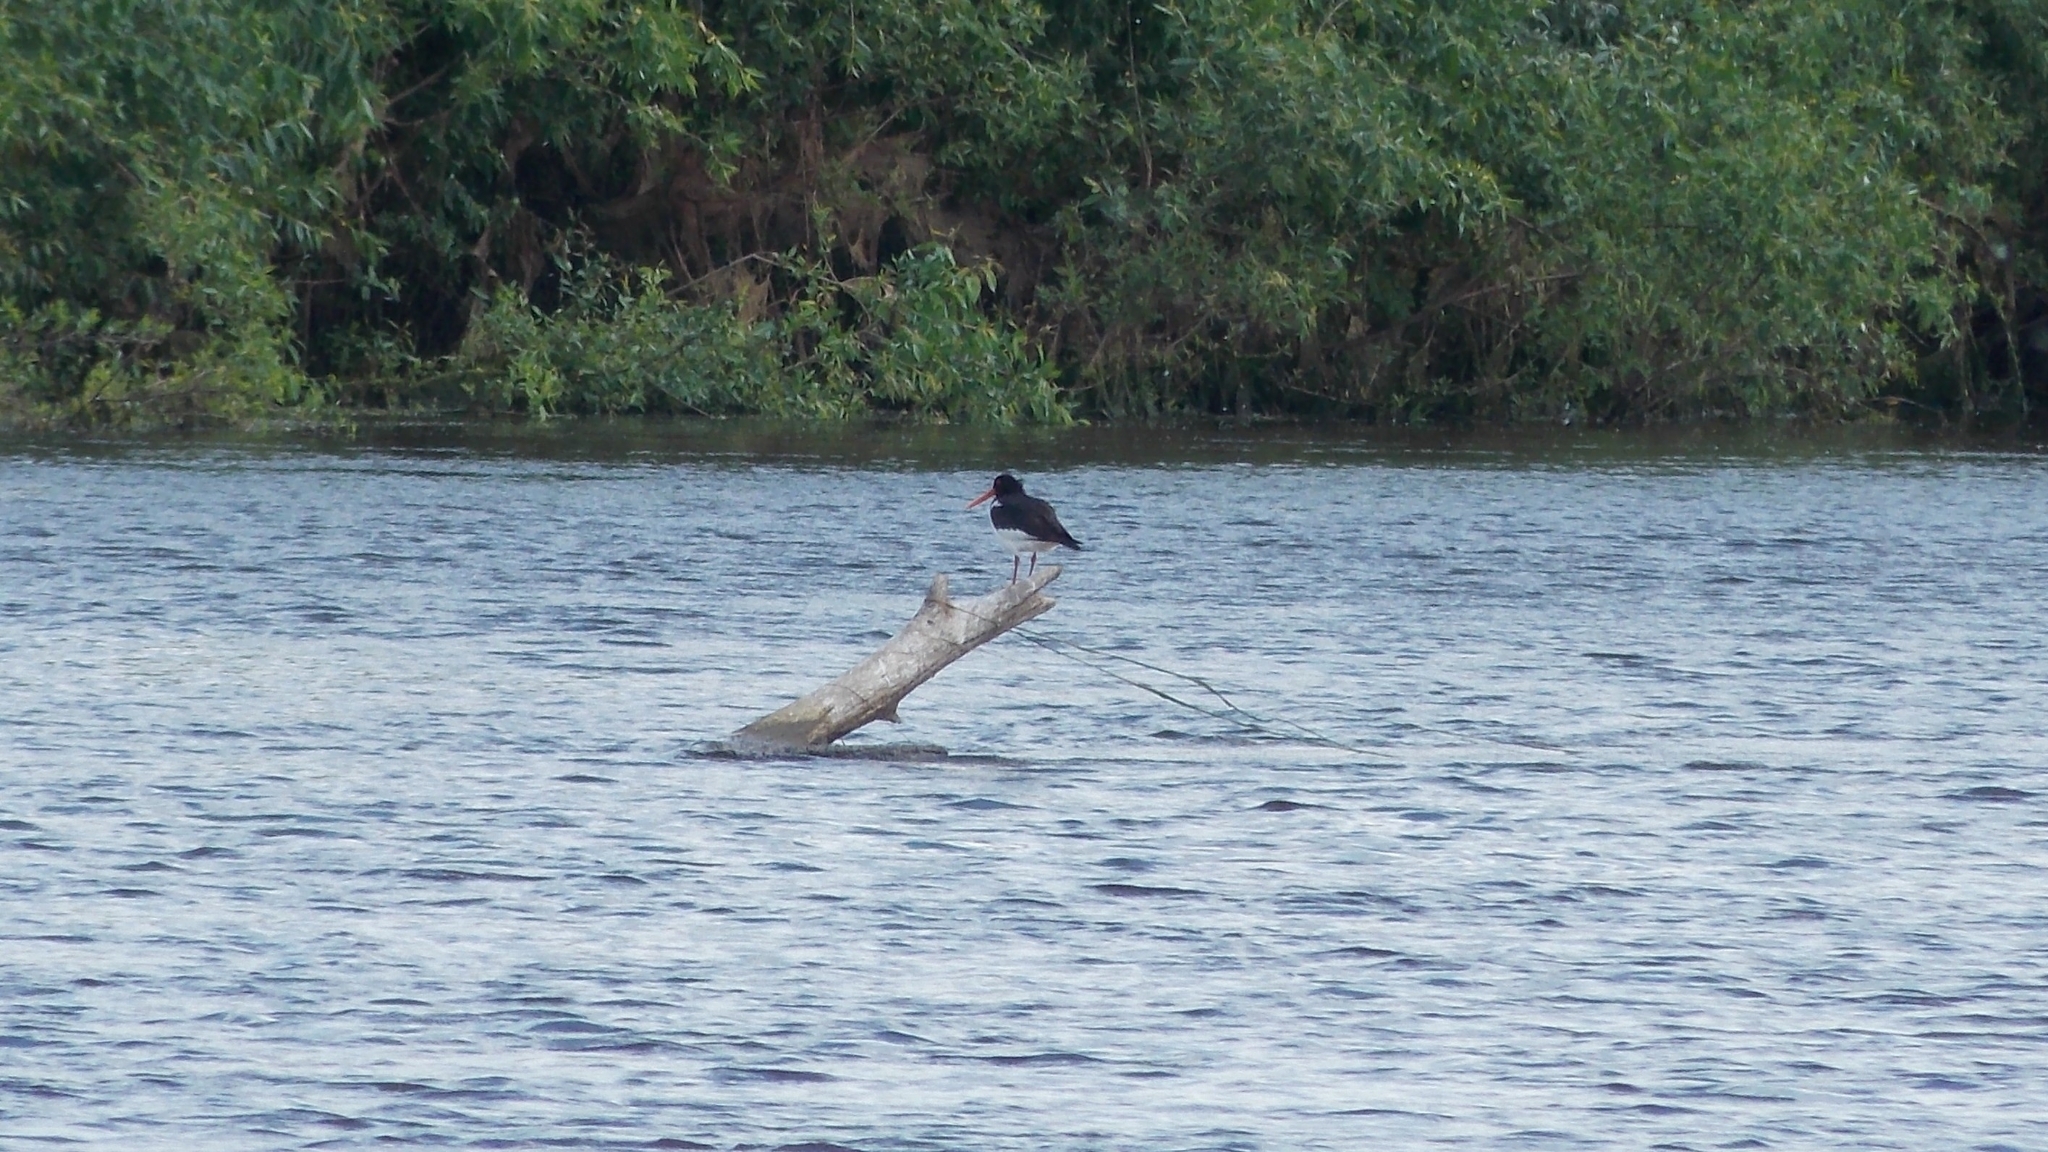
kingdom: Animalia
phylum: Chordata
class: Aves
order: Charadriiformes
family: Haematopodidae
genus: Haematopus
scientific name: Haematopus ostralegus
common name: Eurasian oystercatcher
